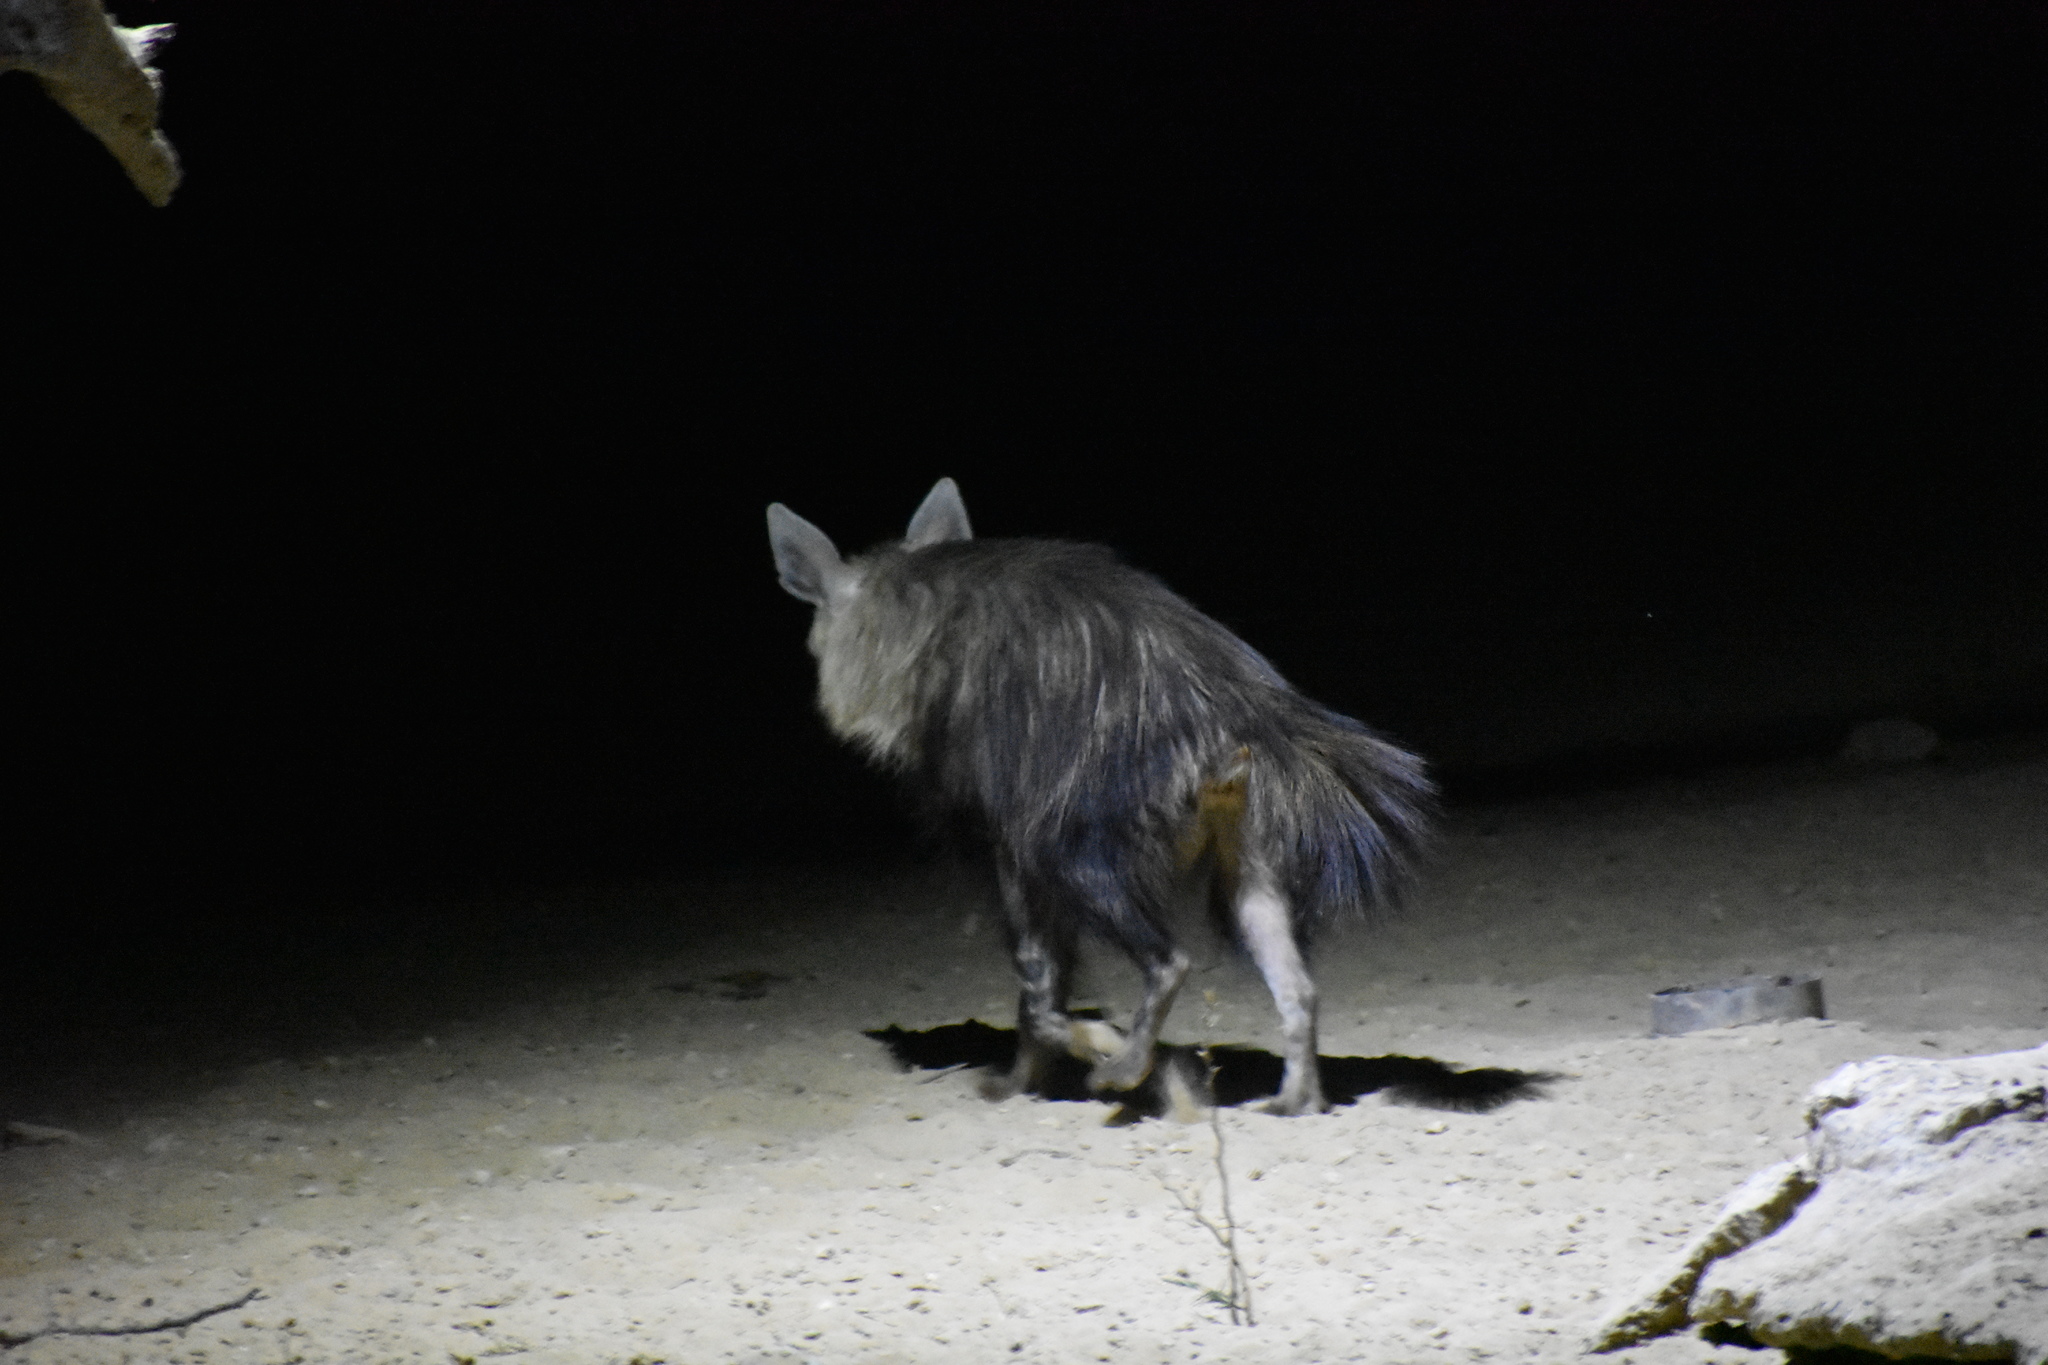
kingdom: Animalia
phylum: Chordata
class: Mammalia
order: Carnivora
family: Hyaenidae
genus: Hyaena
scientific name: Hyaena brunnea
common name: Brown hyena
